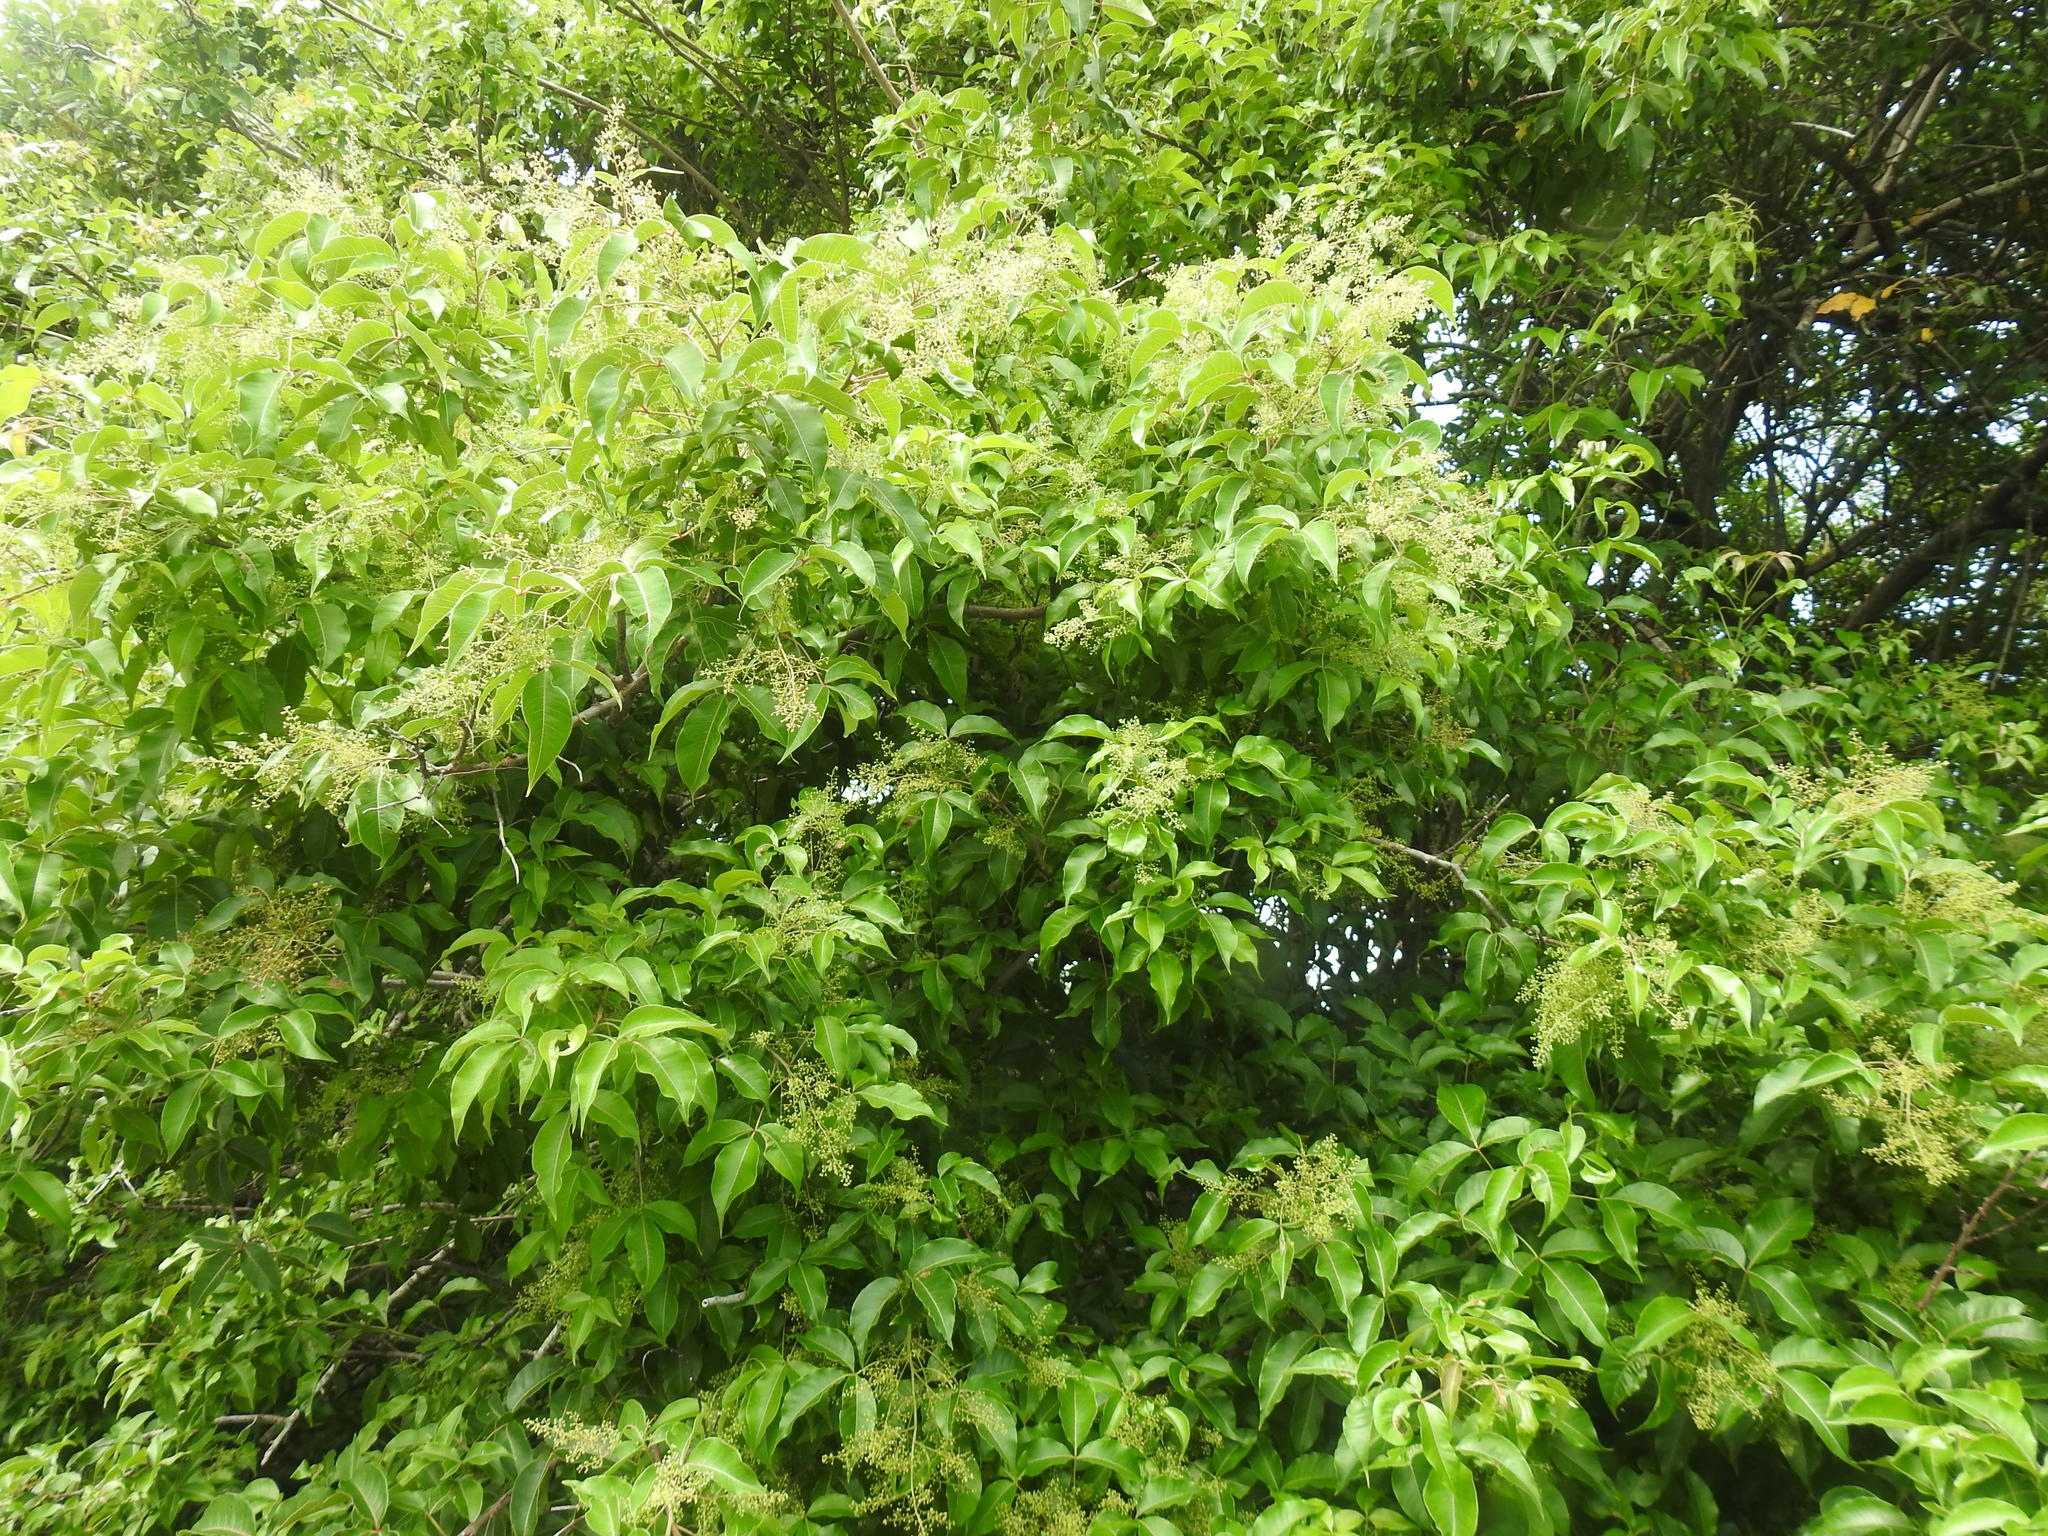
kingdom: Plantae
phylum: Tracheophyta
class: Magnoliopsida
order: Sapindales
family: Anacardiaceae
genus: Searsia
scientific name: Searsia chirindensis
